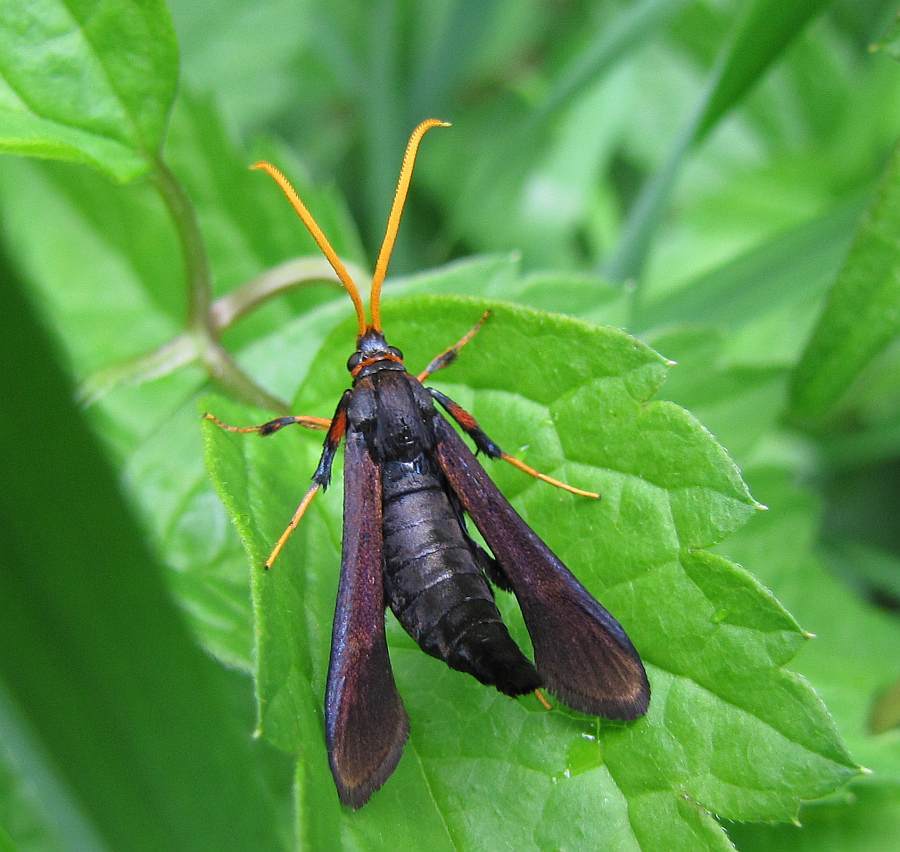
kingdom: Animalia
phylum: Arthropoda
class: Insecta
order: Lepidoptera
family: Sesiidae
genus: Alcathoe
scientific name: Alcathoe caudata
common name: Clematis clearwing moth
